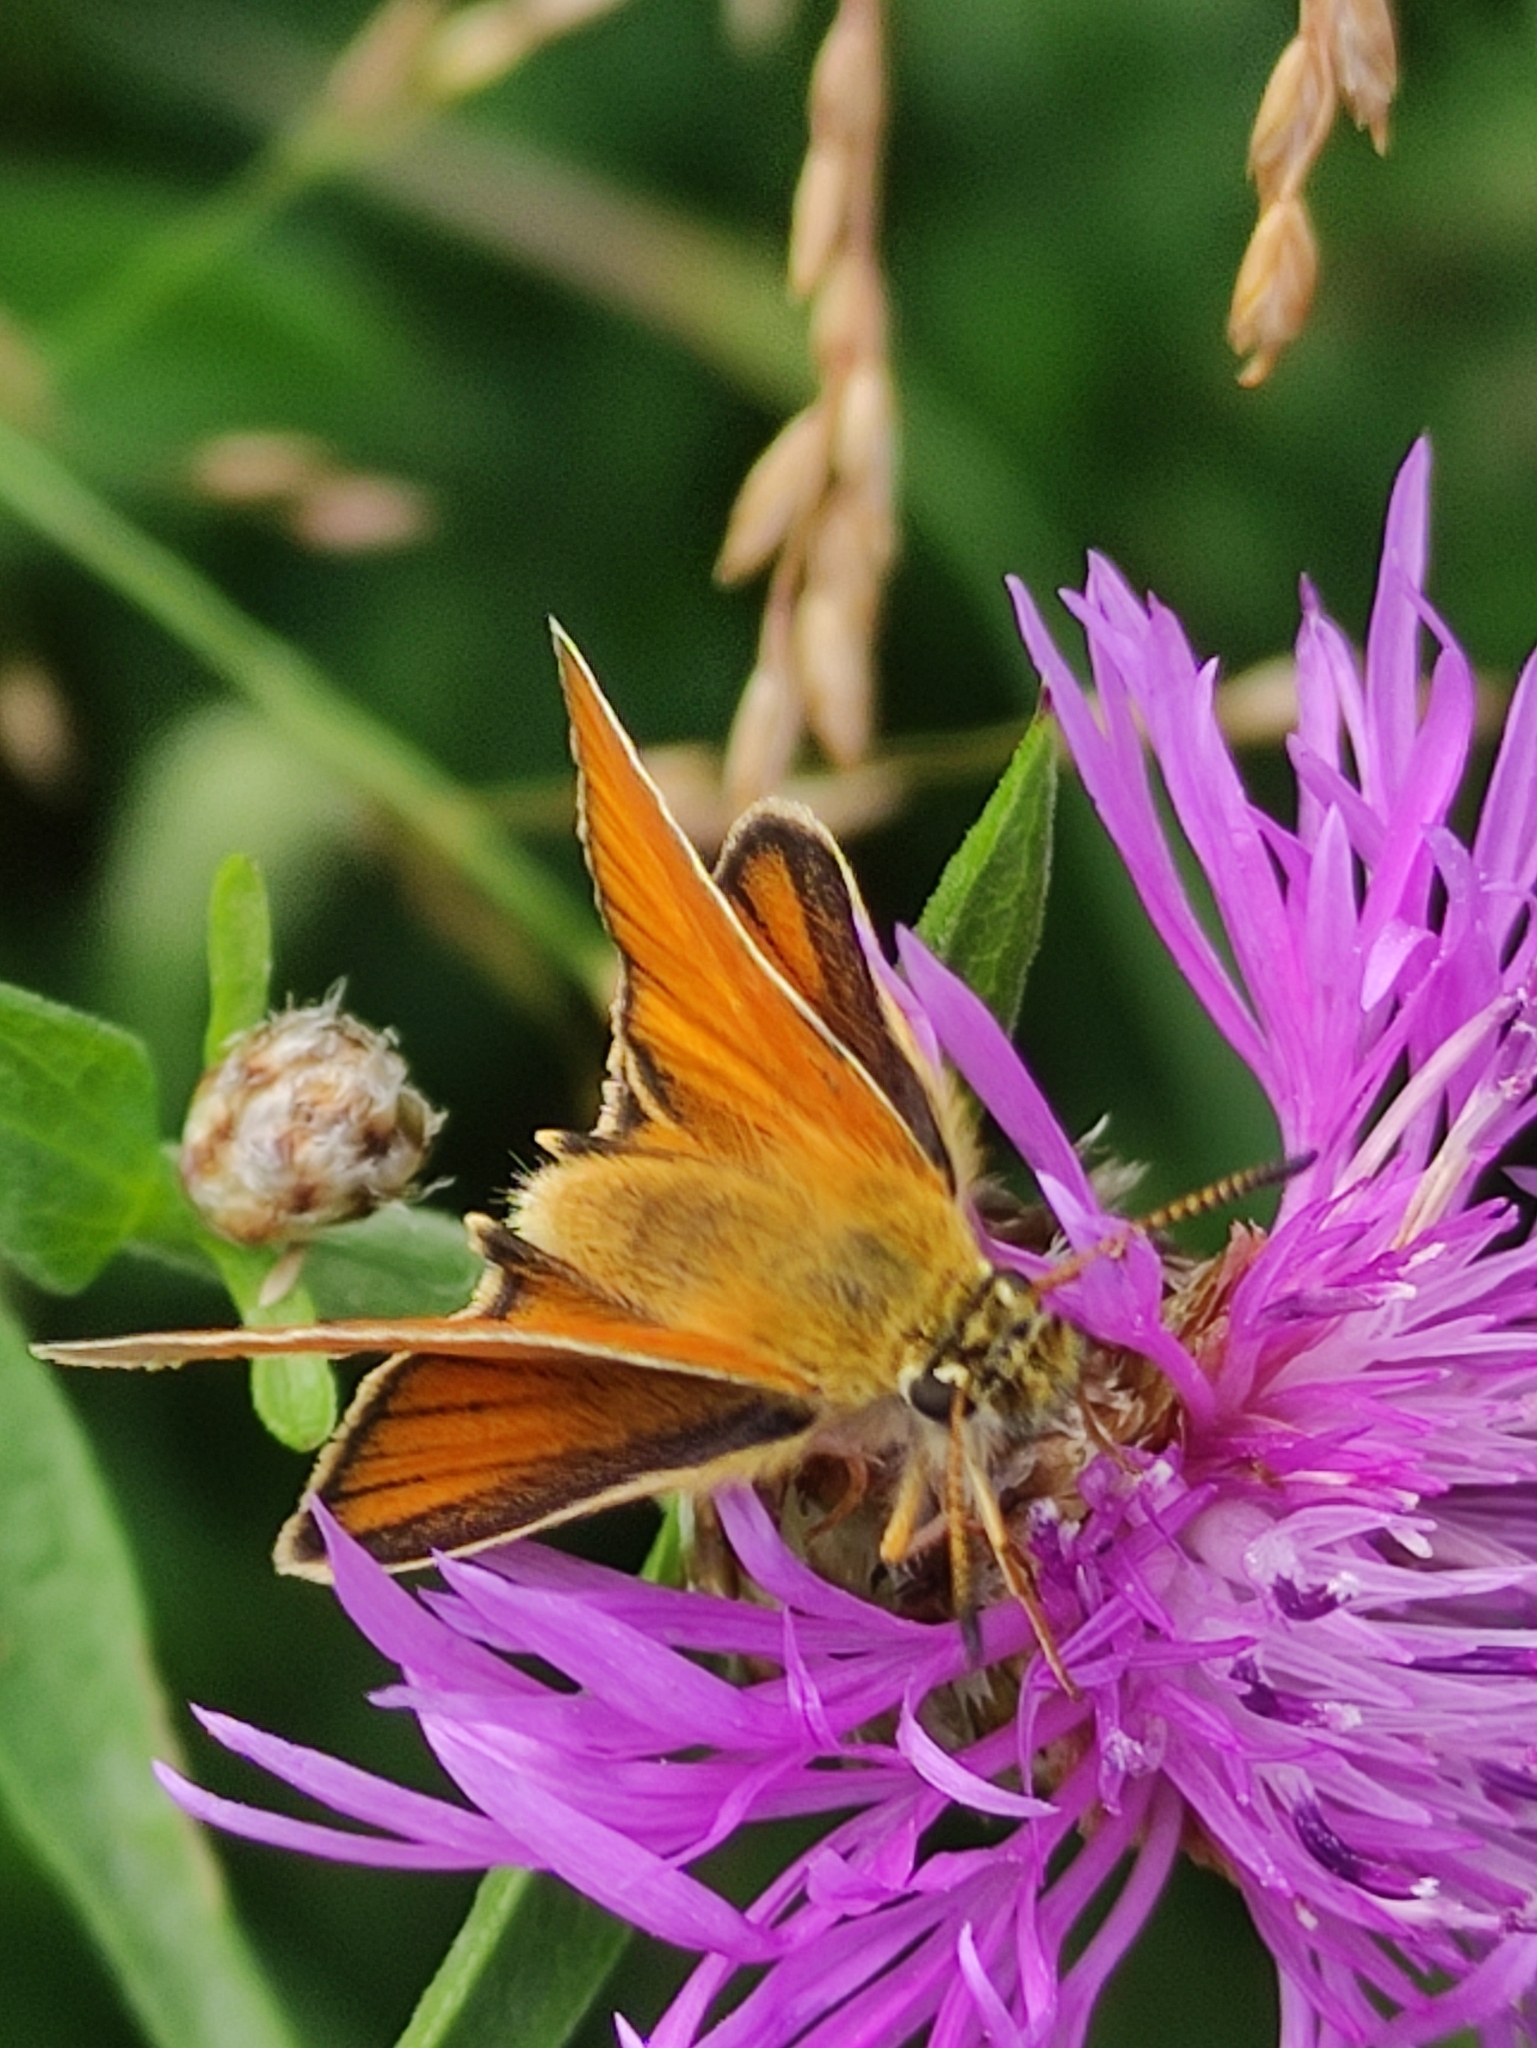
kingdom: Animalia
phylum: Arthropoda
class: Insecta
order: Lepidoptera
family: Hesperiidae
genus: Thymelicus
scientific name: Thymelicus lineola
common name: Essex skipper
